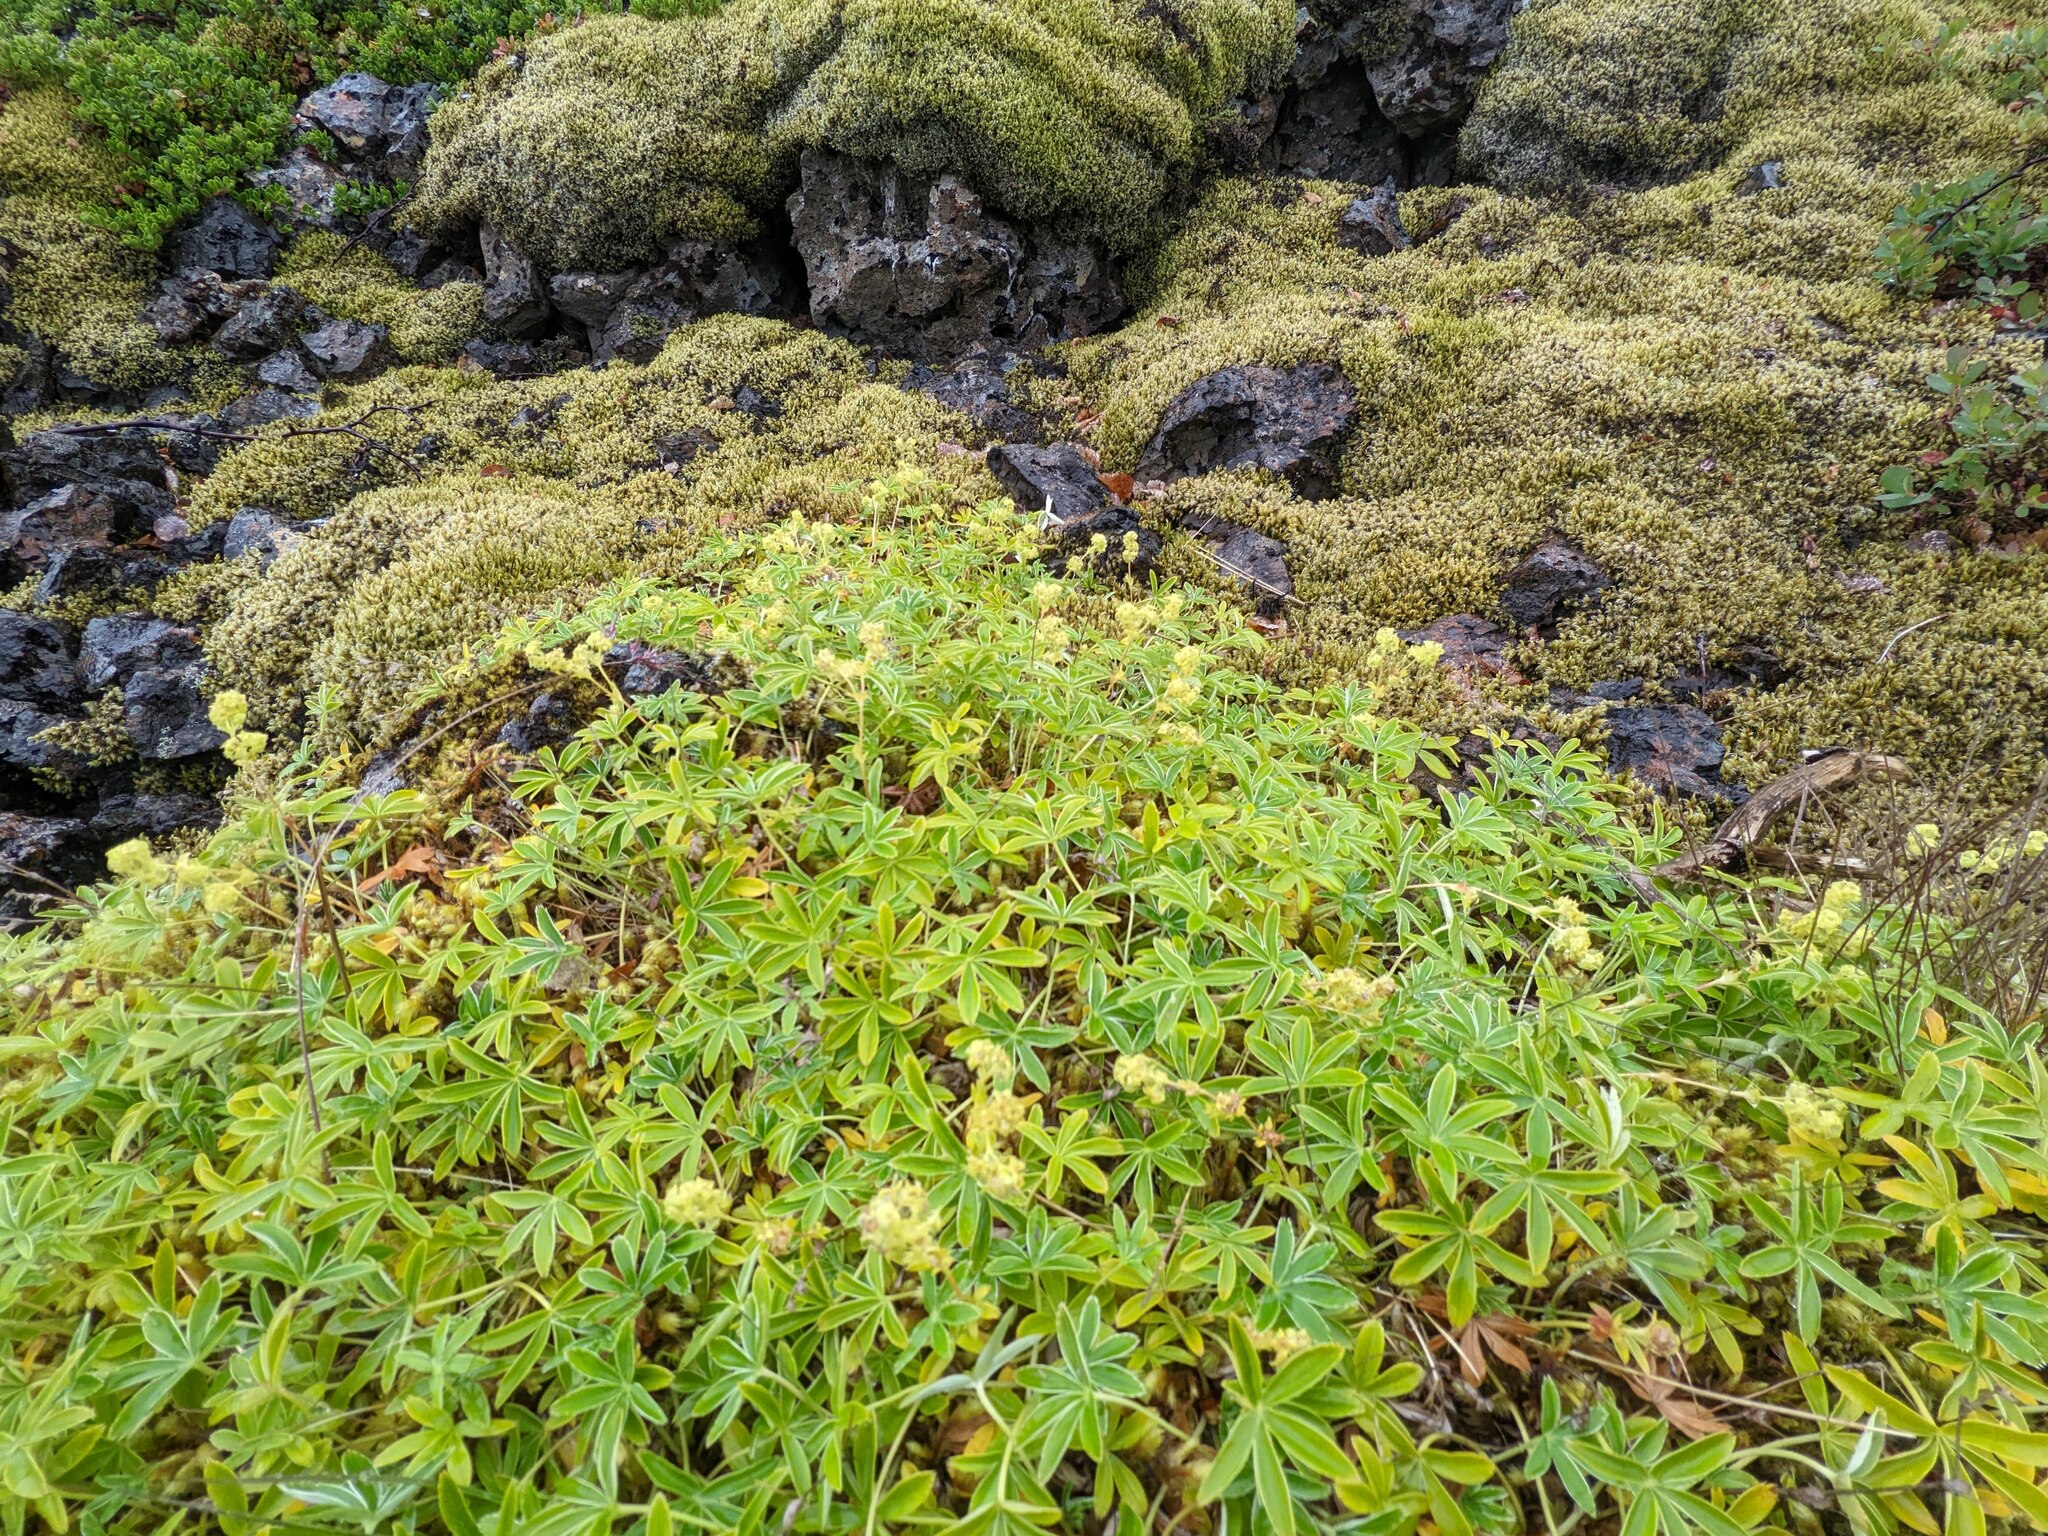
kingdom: Plantae
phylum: Tracheophyta
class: Magnoliopsida
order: Rosales
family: Rosaceae
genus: Alchemilla
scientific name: Alchemilla alpina
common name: Alpine lady's-mantle
